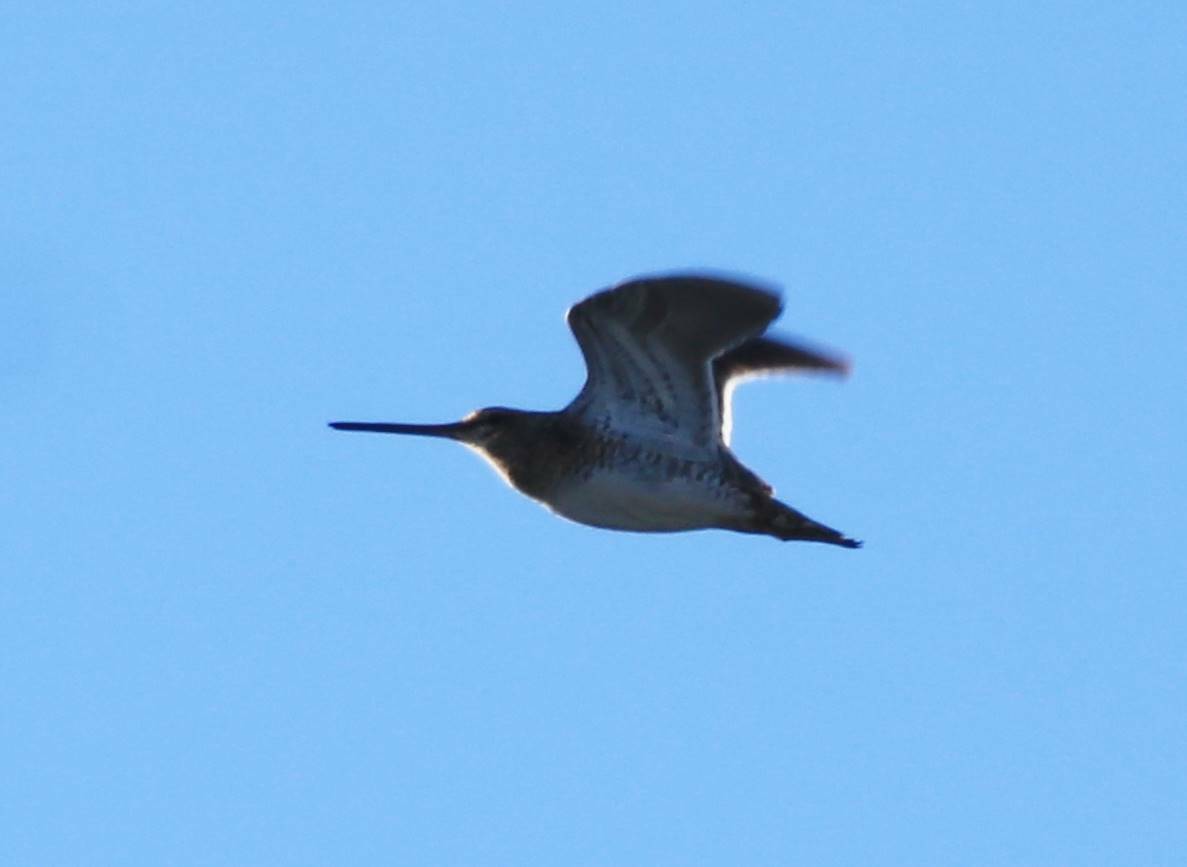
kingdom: Animalia
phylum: Chordata
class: Aves
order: Charadriiformes
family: Scolopacidae
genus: Gallinago
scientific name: Gallinago gallinago
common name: Common snipe
